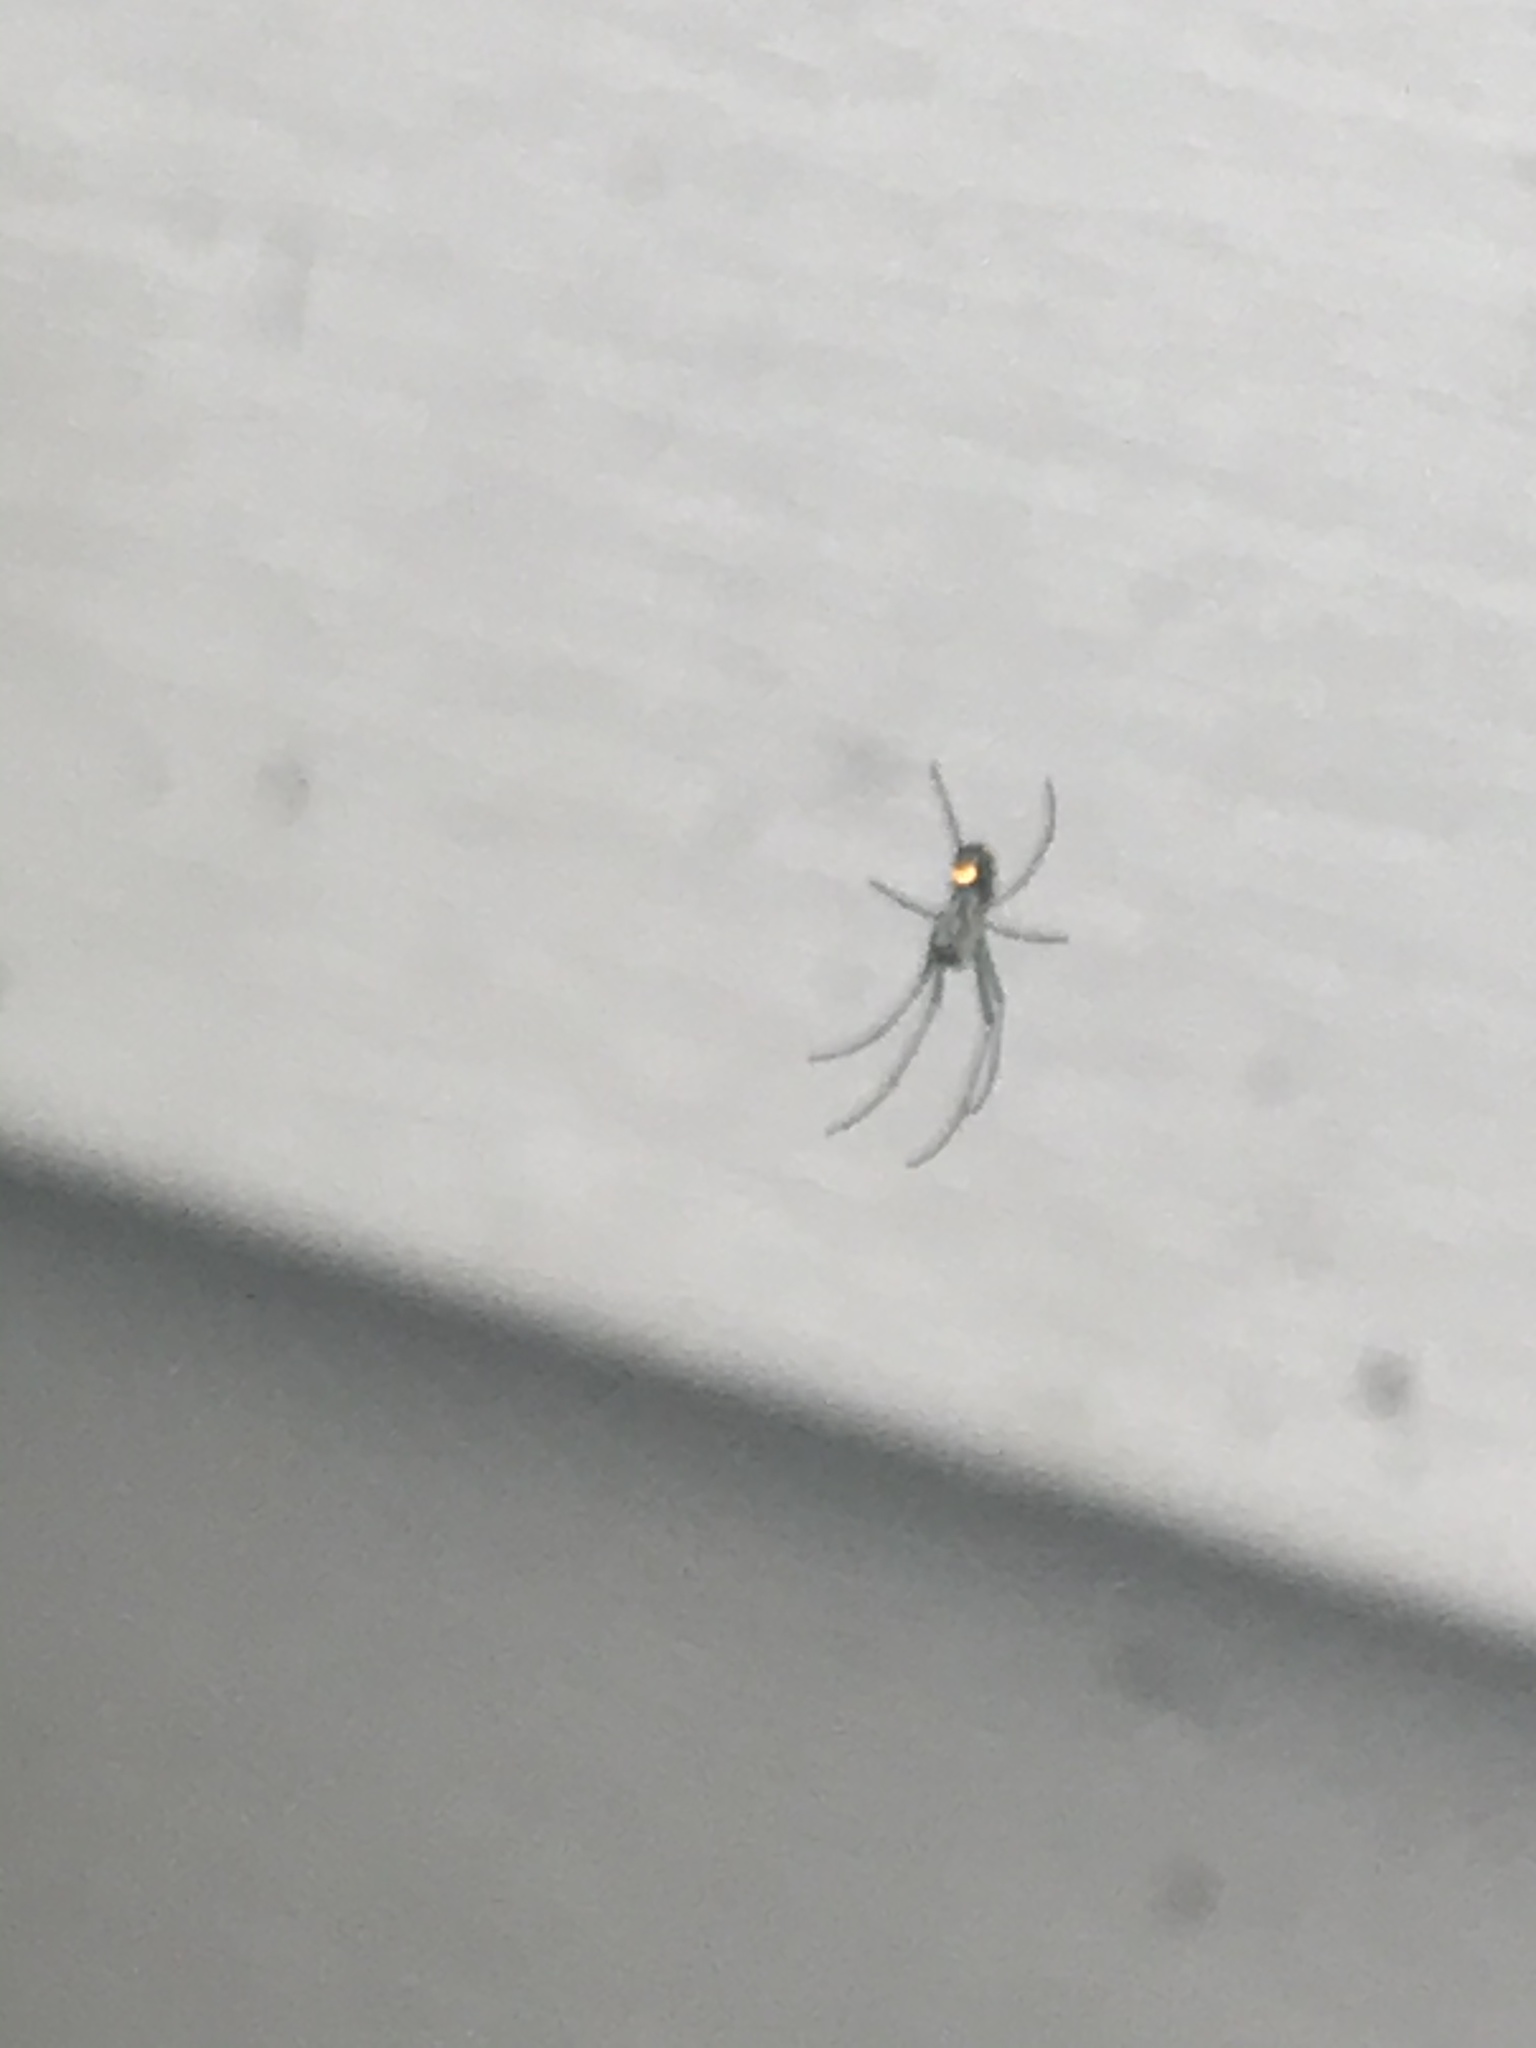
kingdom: Animalia
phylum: Arthropoda
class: Arachnida
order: Araneae
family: Tetragnathidae
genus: Leucauge
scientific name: Leucauge venusta
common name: Longjawed orb weavers
